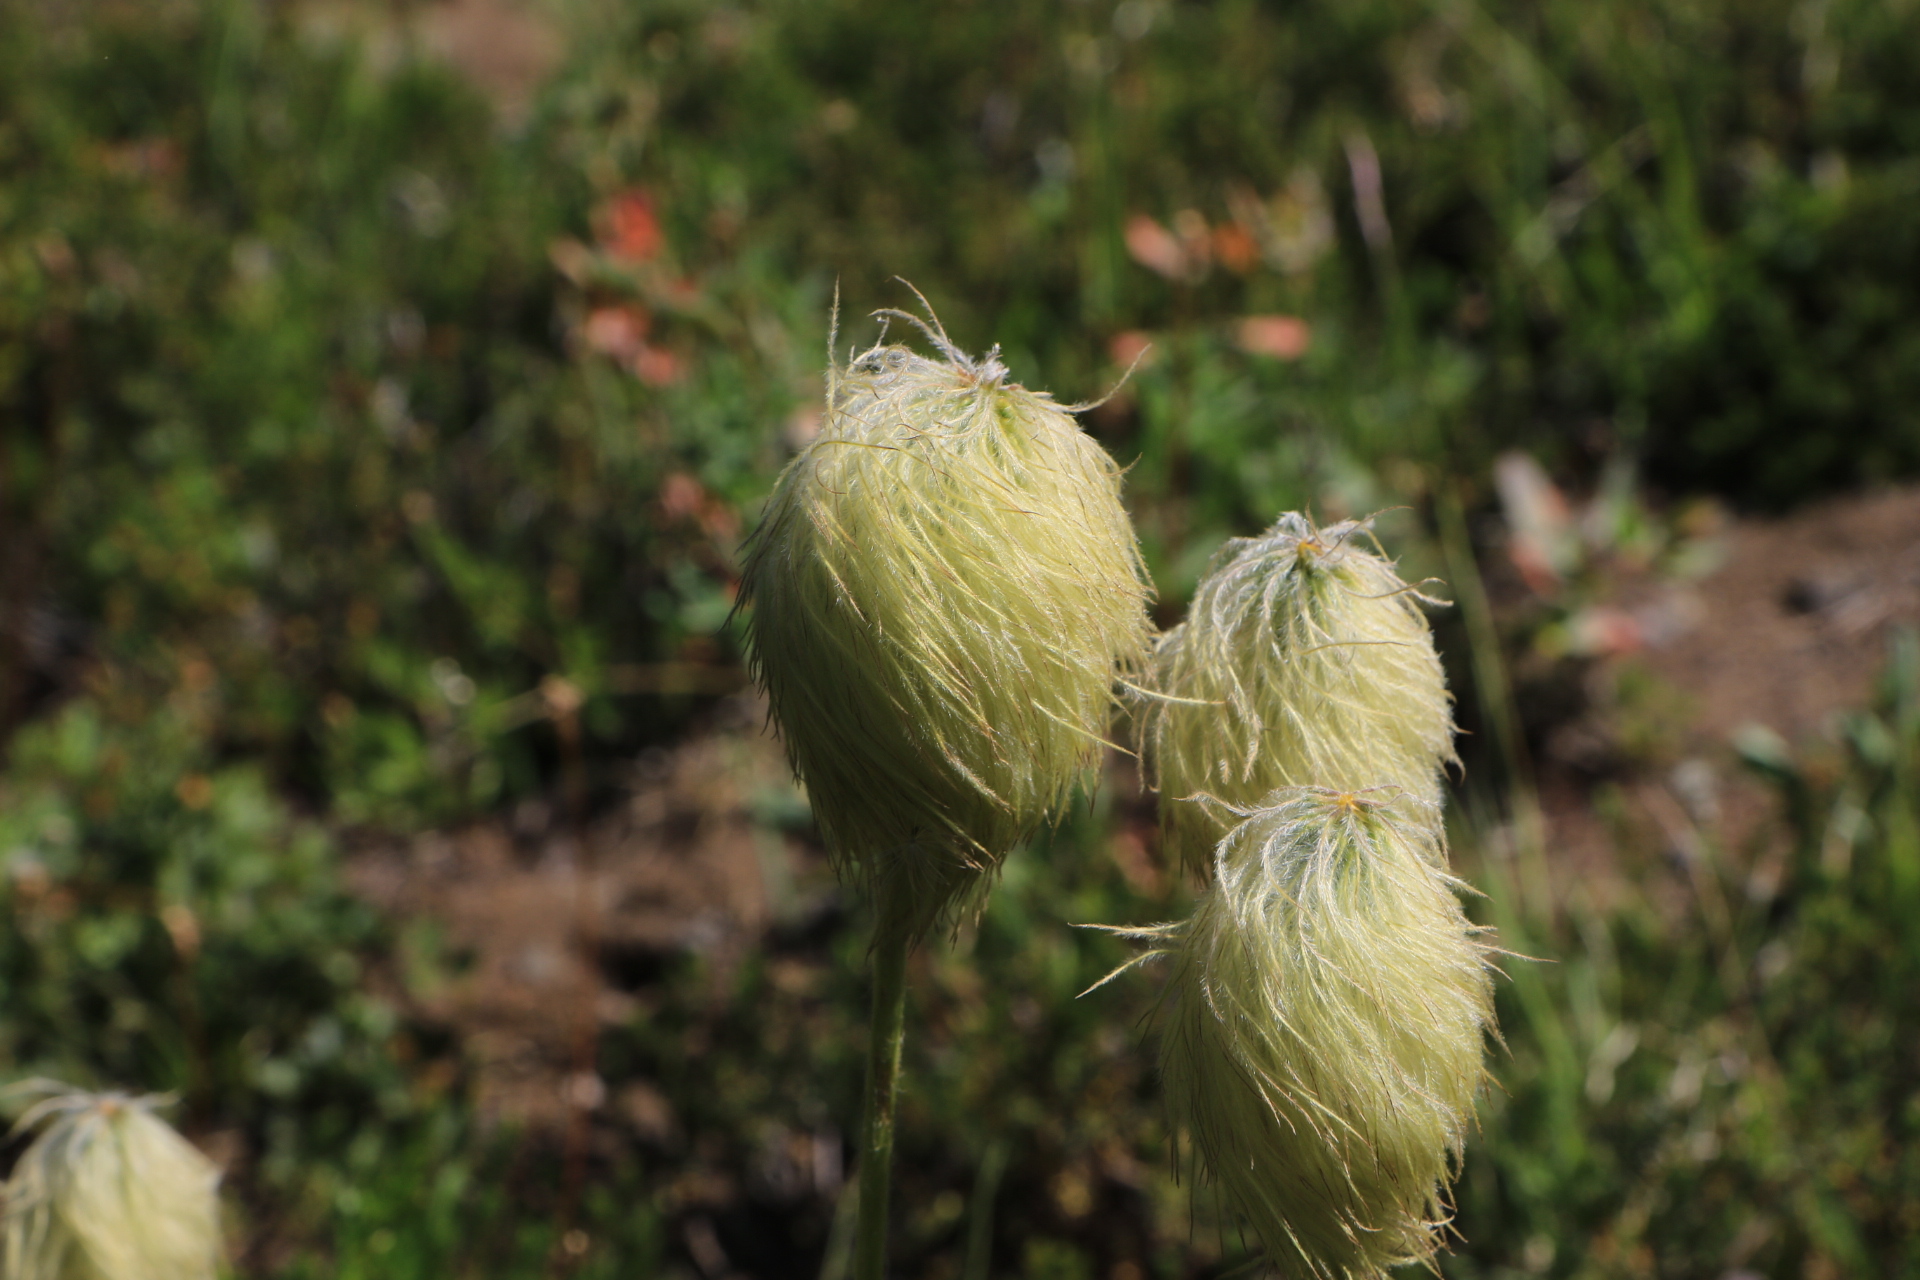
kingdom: Plantae
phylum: Tracheophyta
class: Magnoliopsida
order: Ranunculales
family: Ranunculaceae
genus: Pulsatilla
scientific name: Pulsatilla occidentalis
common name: Mountain pasqueflower
